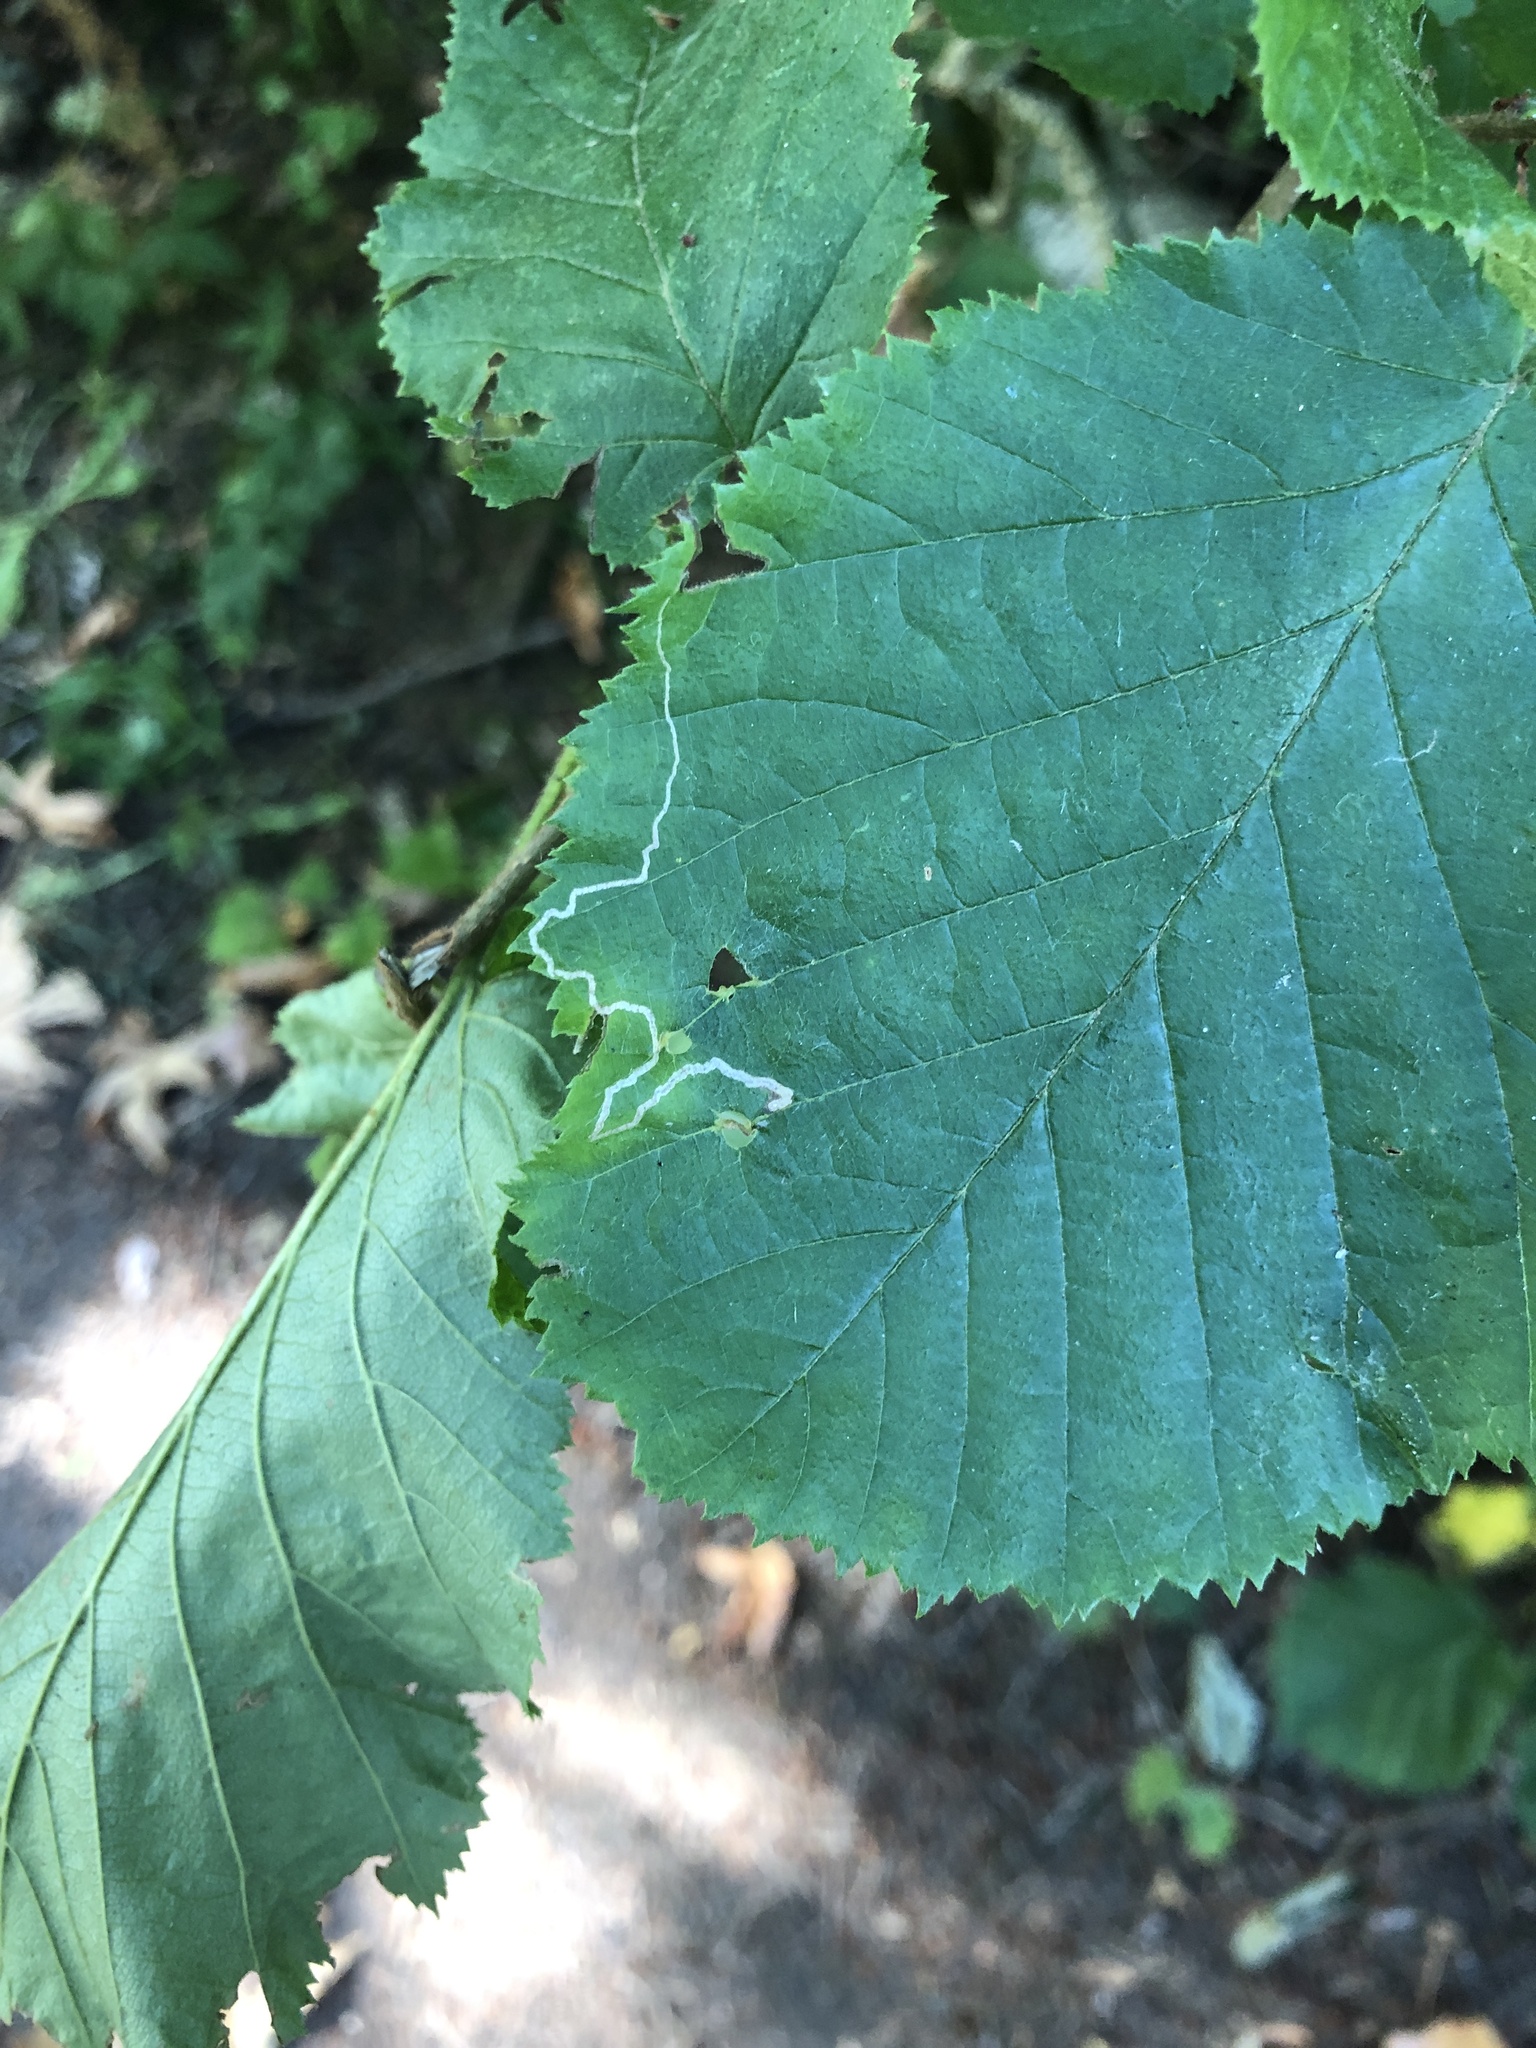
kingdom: Animalia
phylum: Arthropoda
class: Insecta
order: Lepidoptera
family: Nepticulidae
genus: Stigmella
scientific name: Stigmella microtheriella
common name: Nut-tree pigmy
